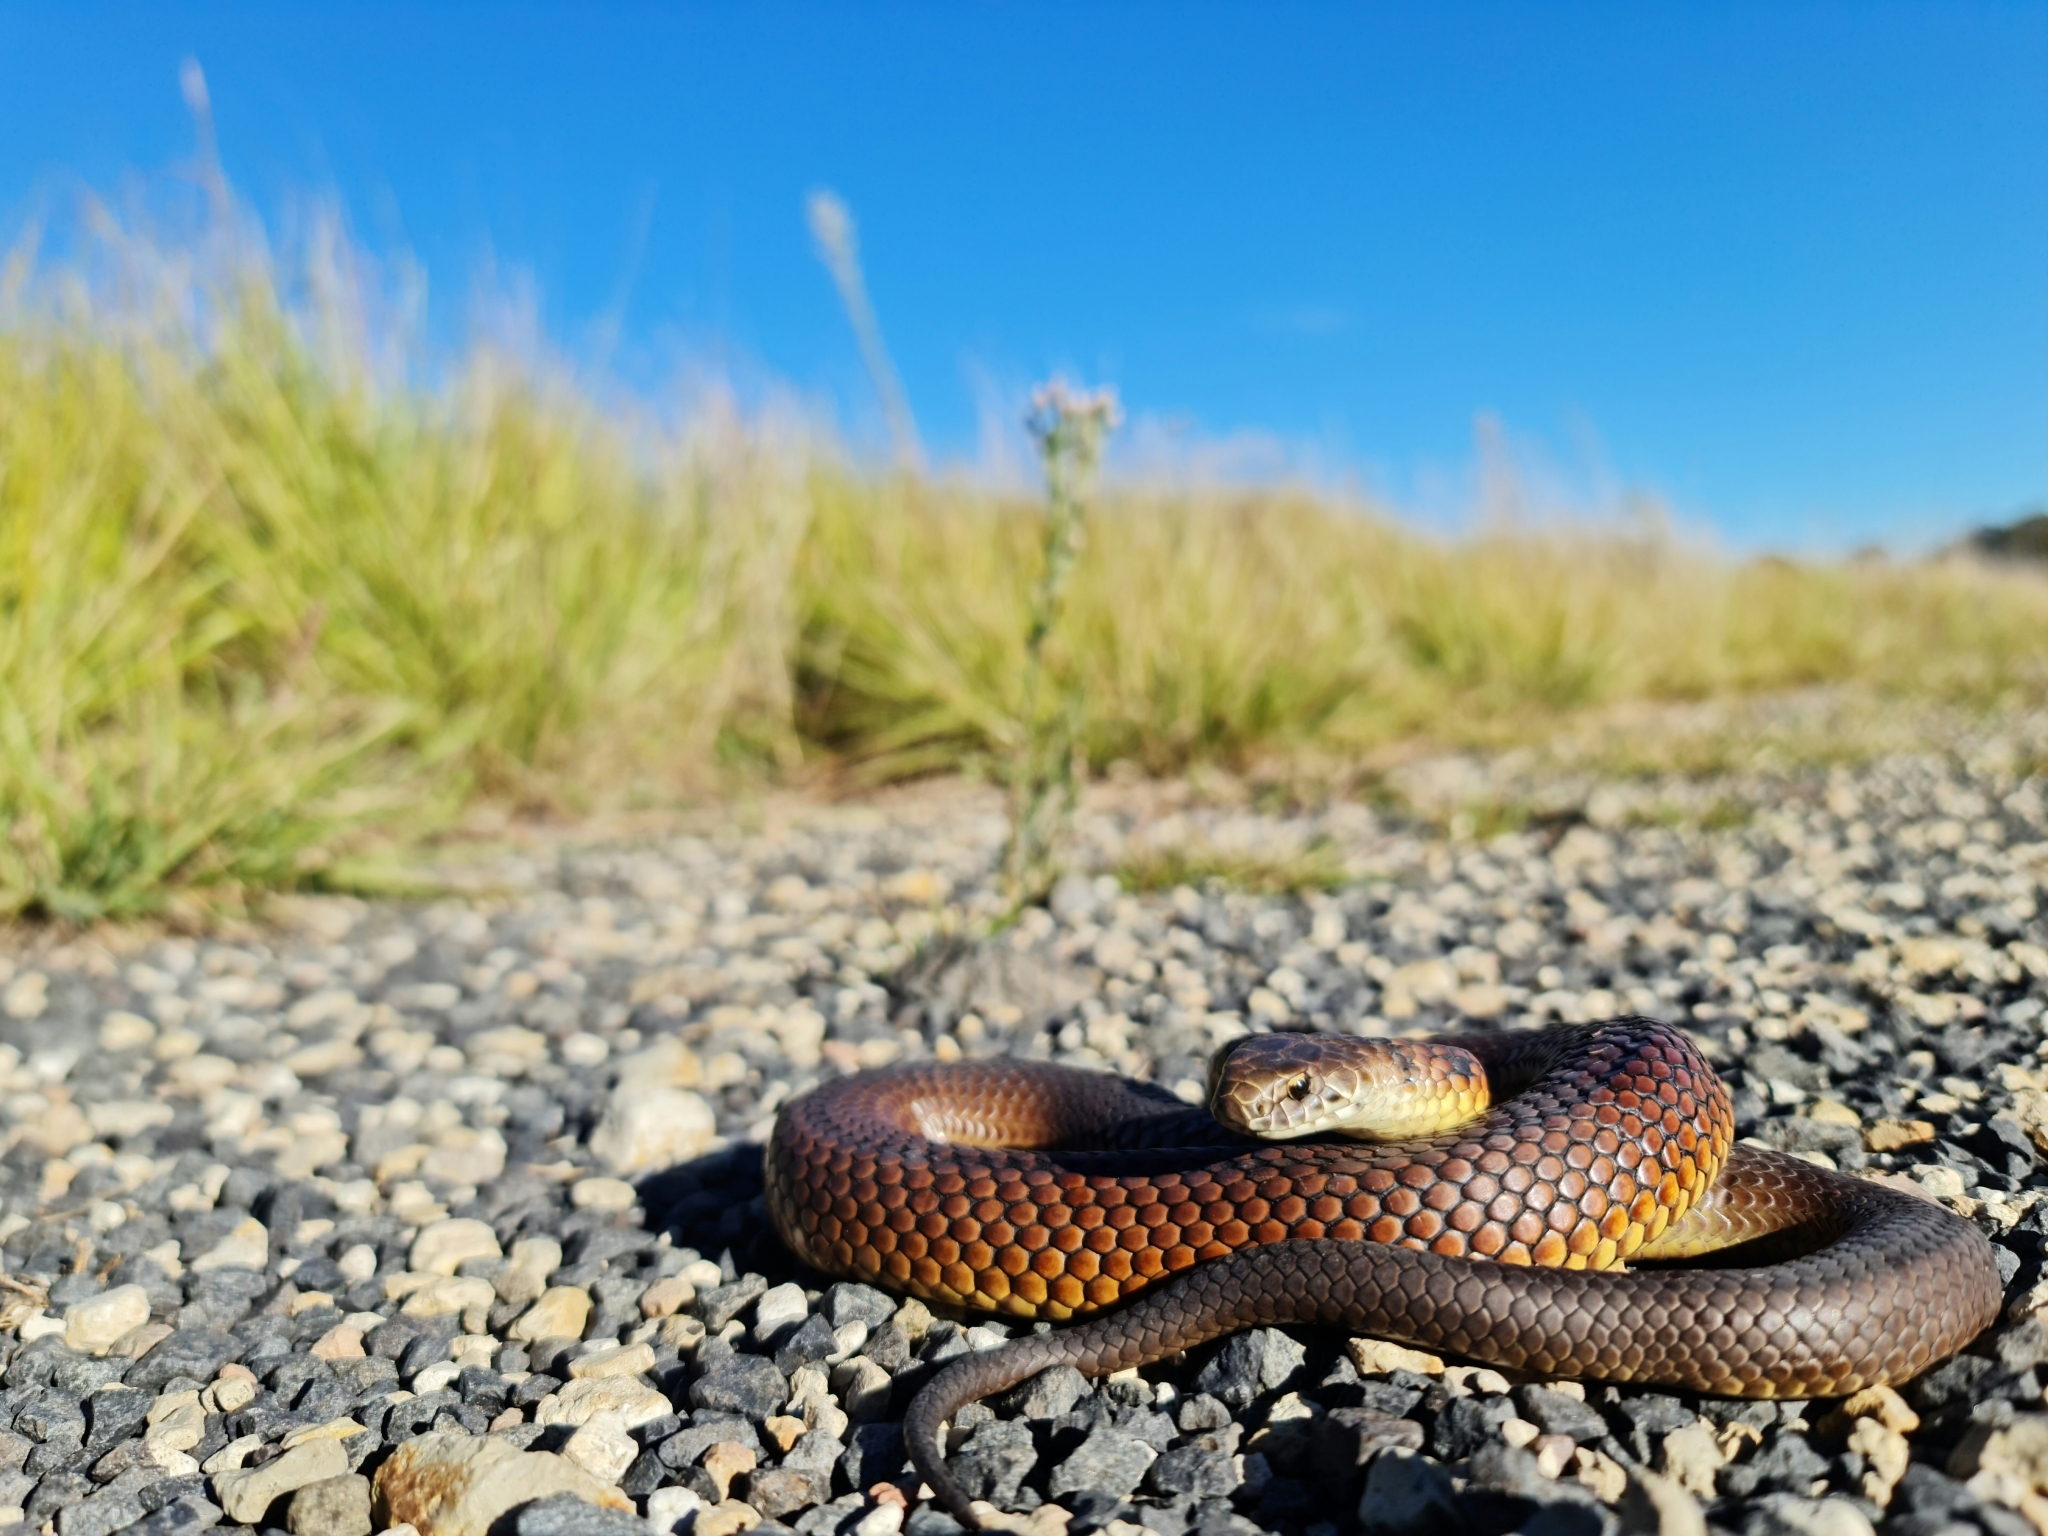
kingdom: Animalia
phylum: Chordata
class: Squamata
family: Elapidae
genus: Austrelaps
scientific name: Austrelaps ramsayi
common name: Highlands copperhead
